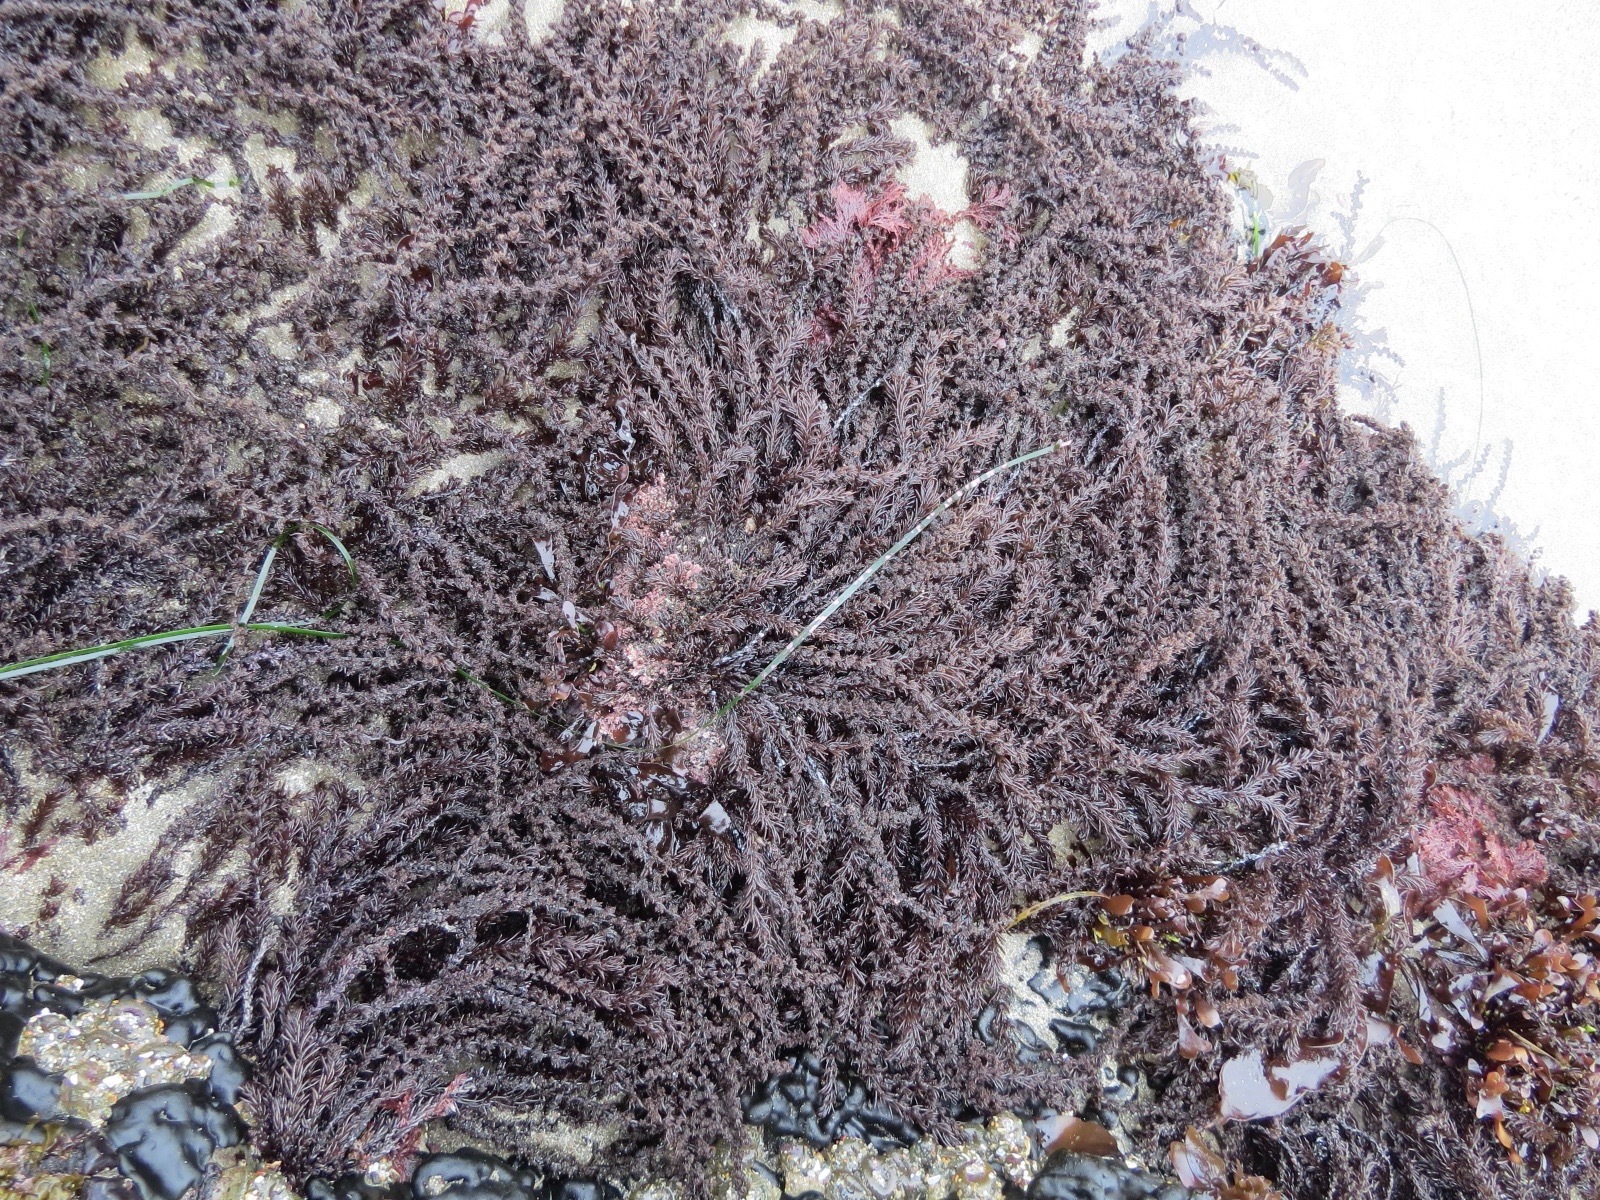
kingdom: Plantae
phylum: Rhodophyta
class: Florideophyceae
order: Ceramiales
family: Rhodomelaceae
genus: Neorhodomela
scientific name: Neorhodomela larix
